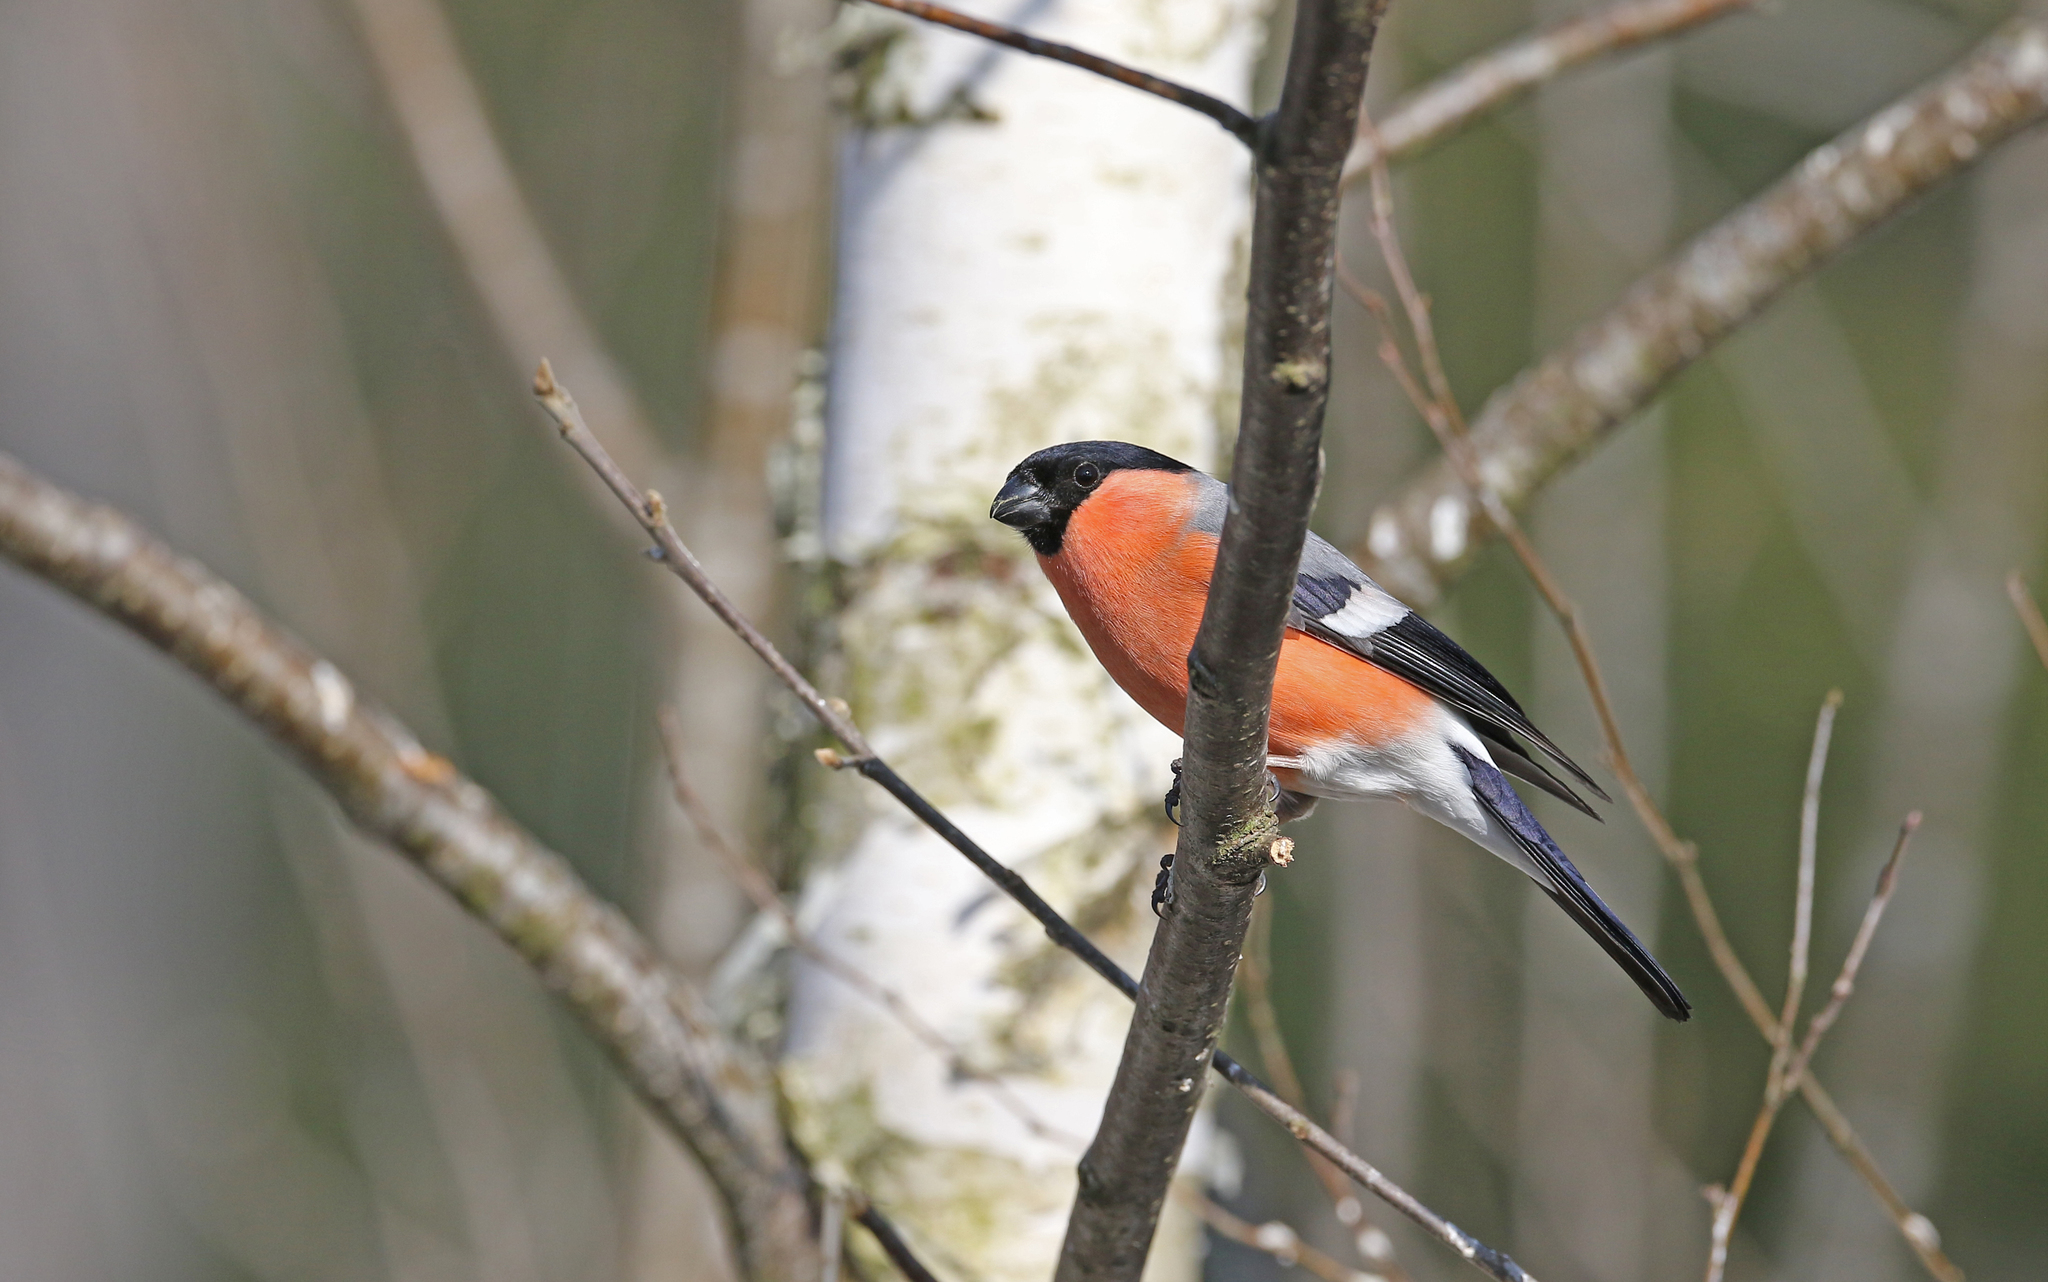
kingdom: Animalia
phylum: Chordata
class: Aves
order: Passeriformes
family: Fringillidae
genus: Pyrrhula
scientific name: Pyrrhula pyrrhula
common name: Eurasian bullfinch
